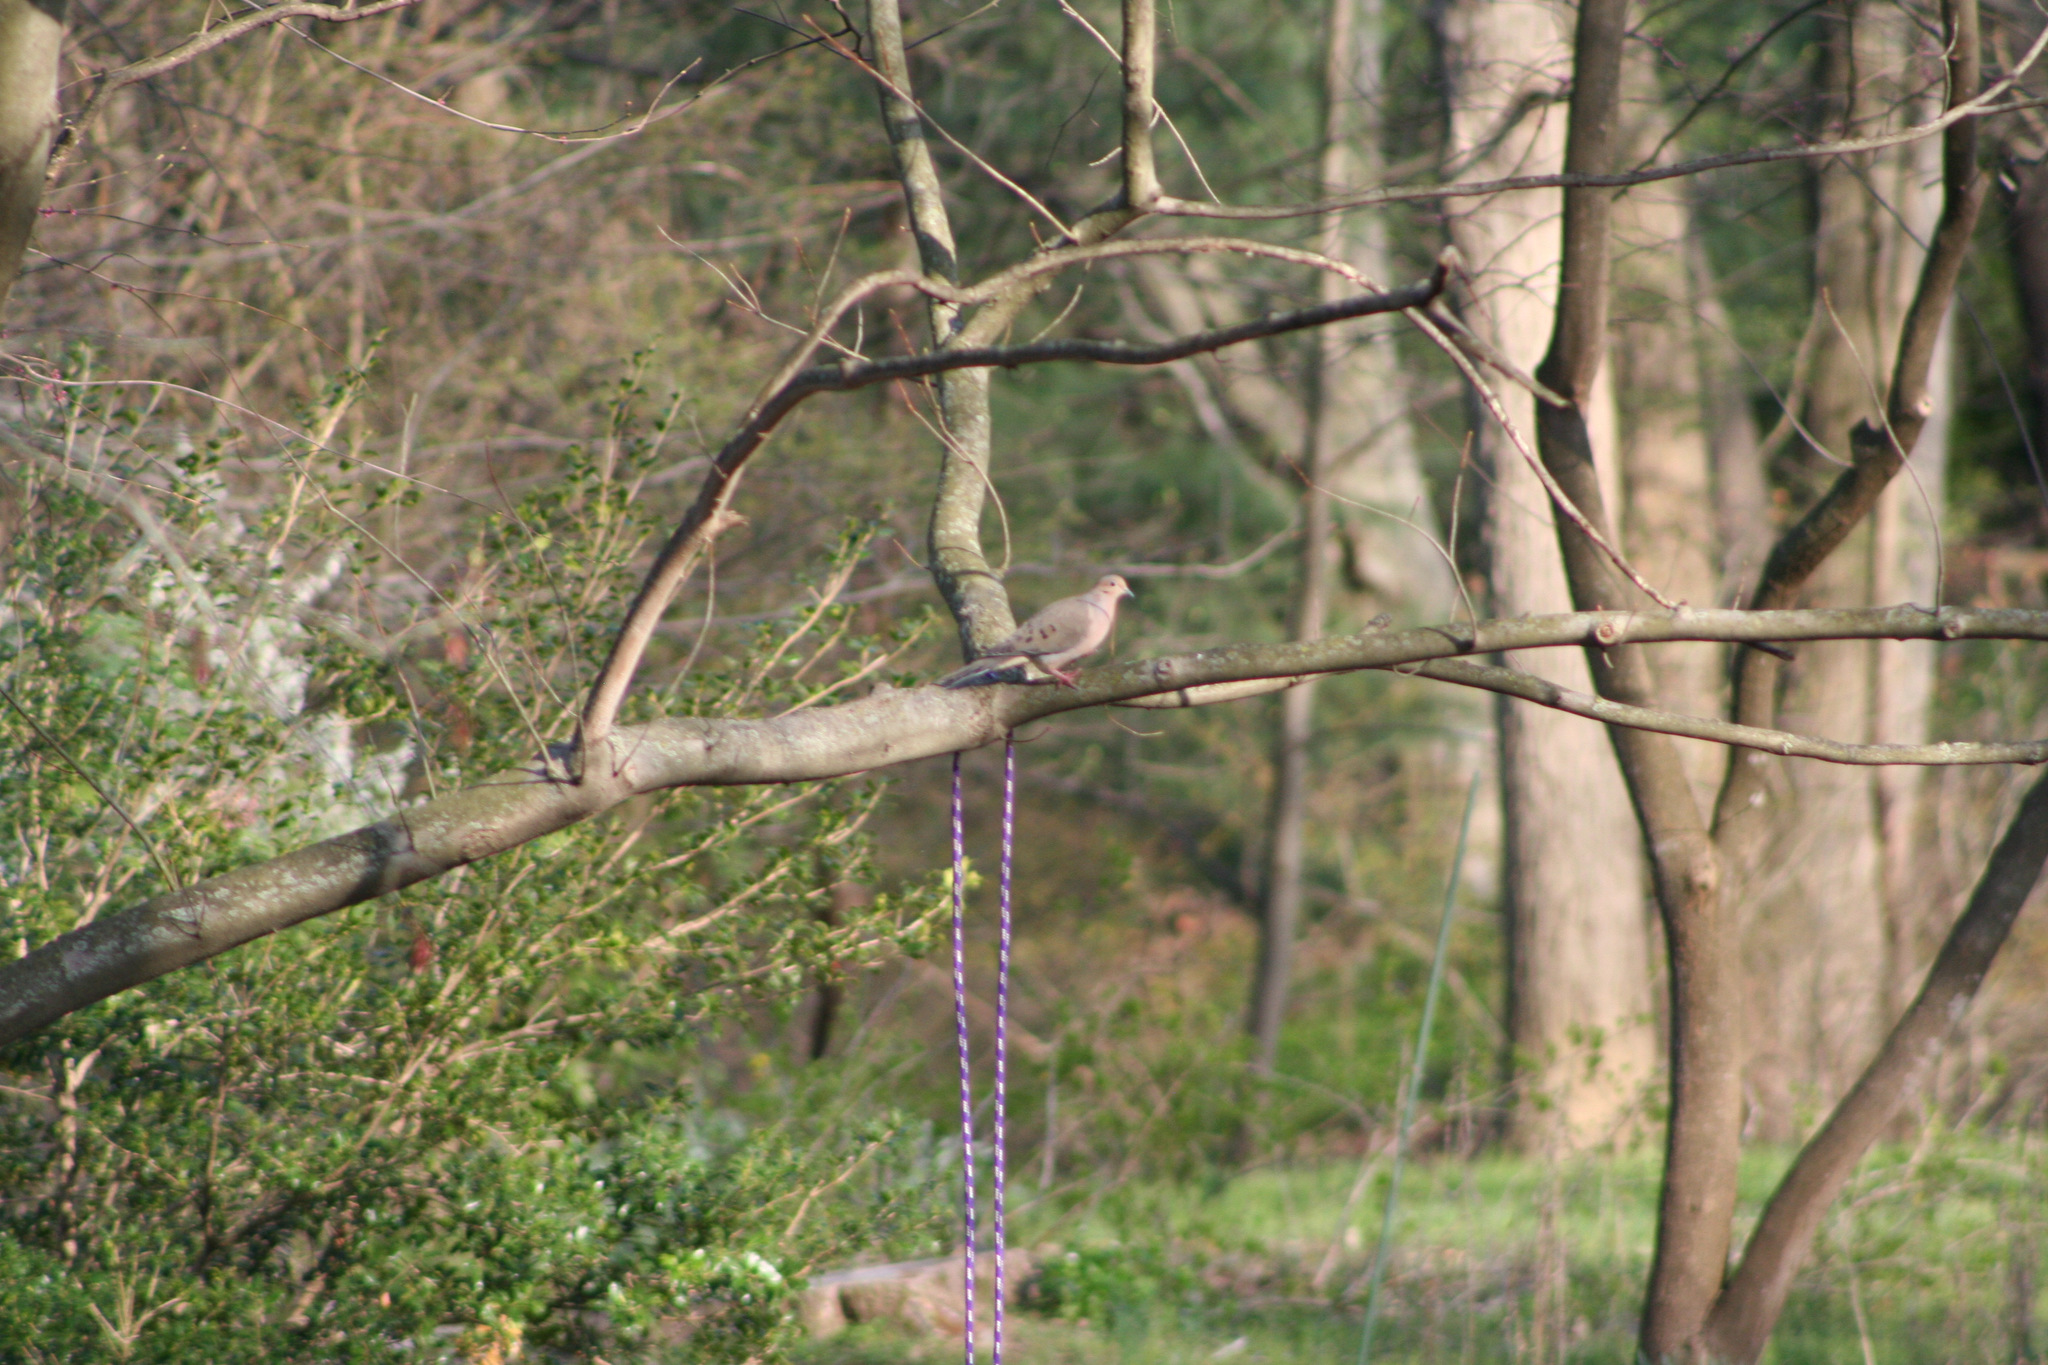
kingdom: Animalia
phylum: Chordata
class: Aves
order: Columbiformes
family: Columbidae
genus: Zenaida
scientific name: Zenaida macroura
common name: Mourning dove
